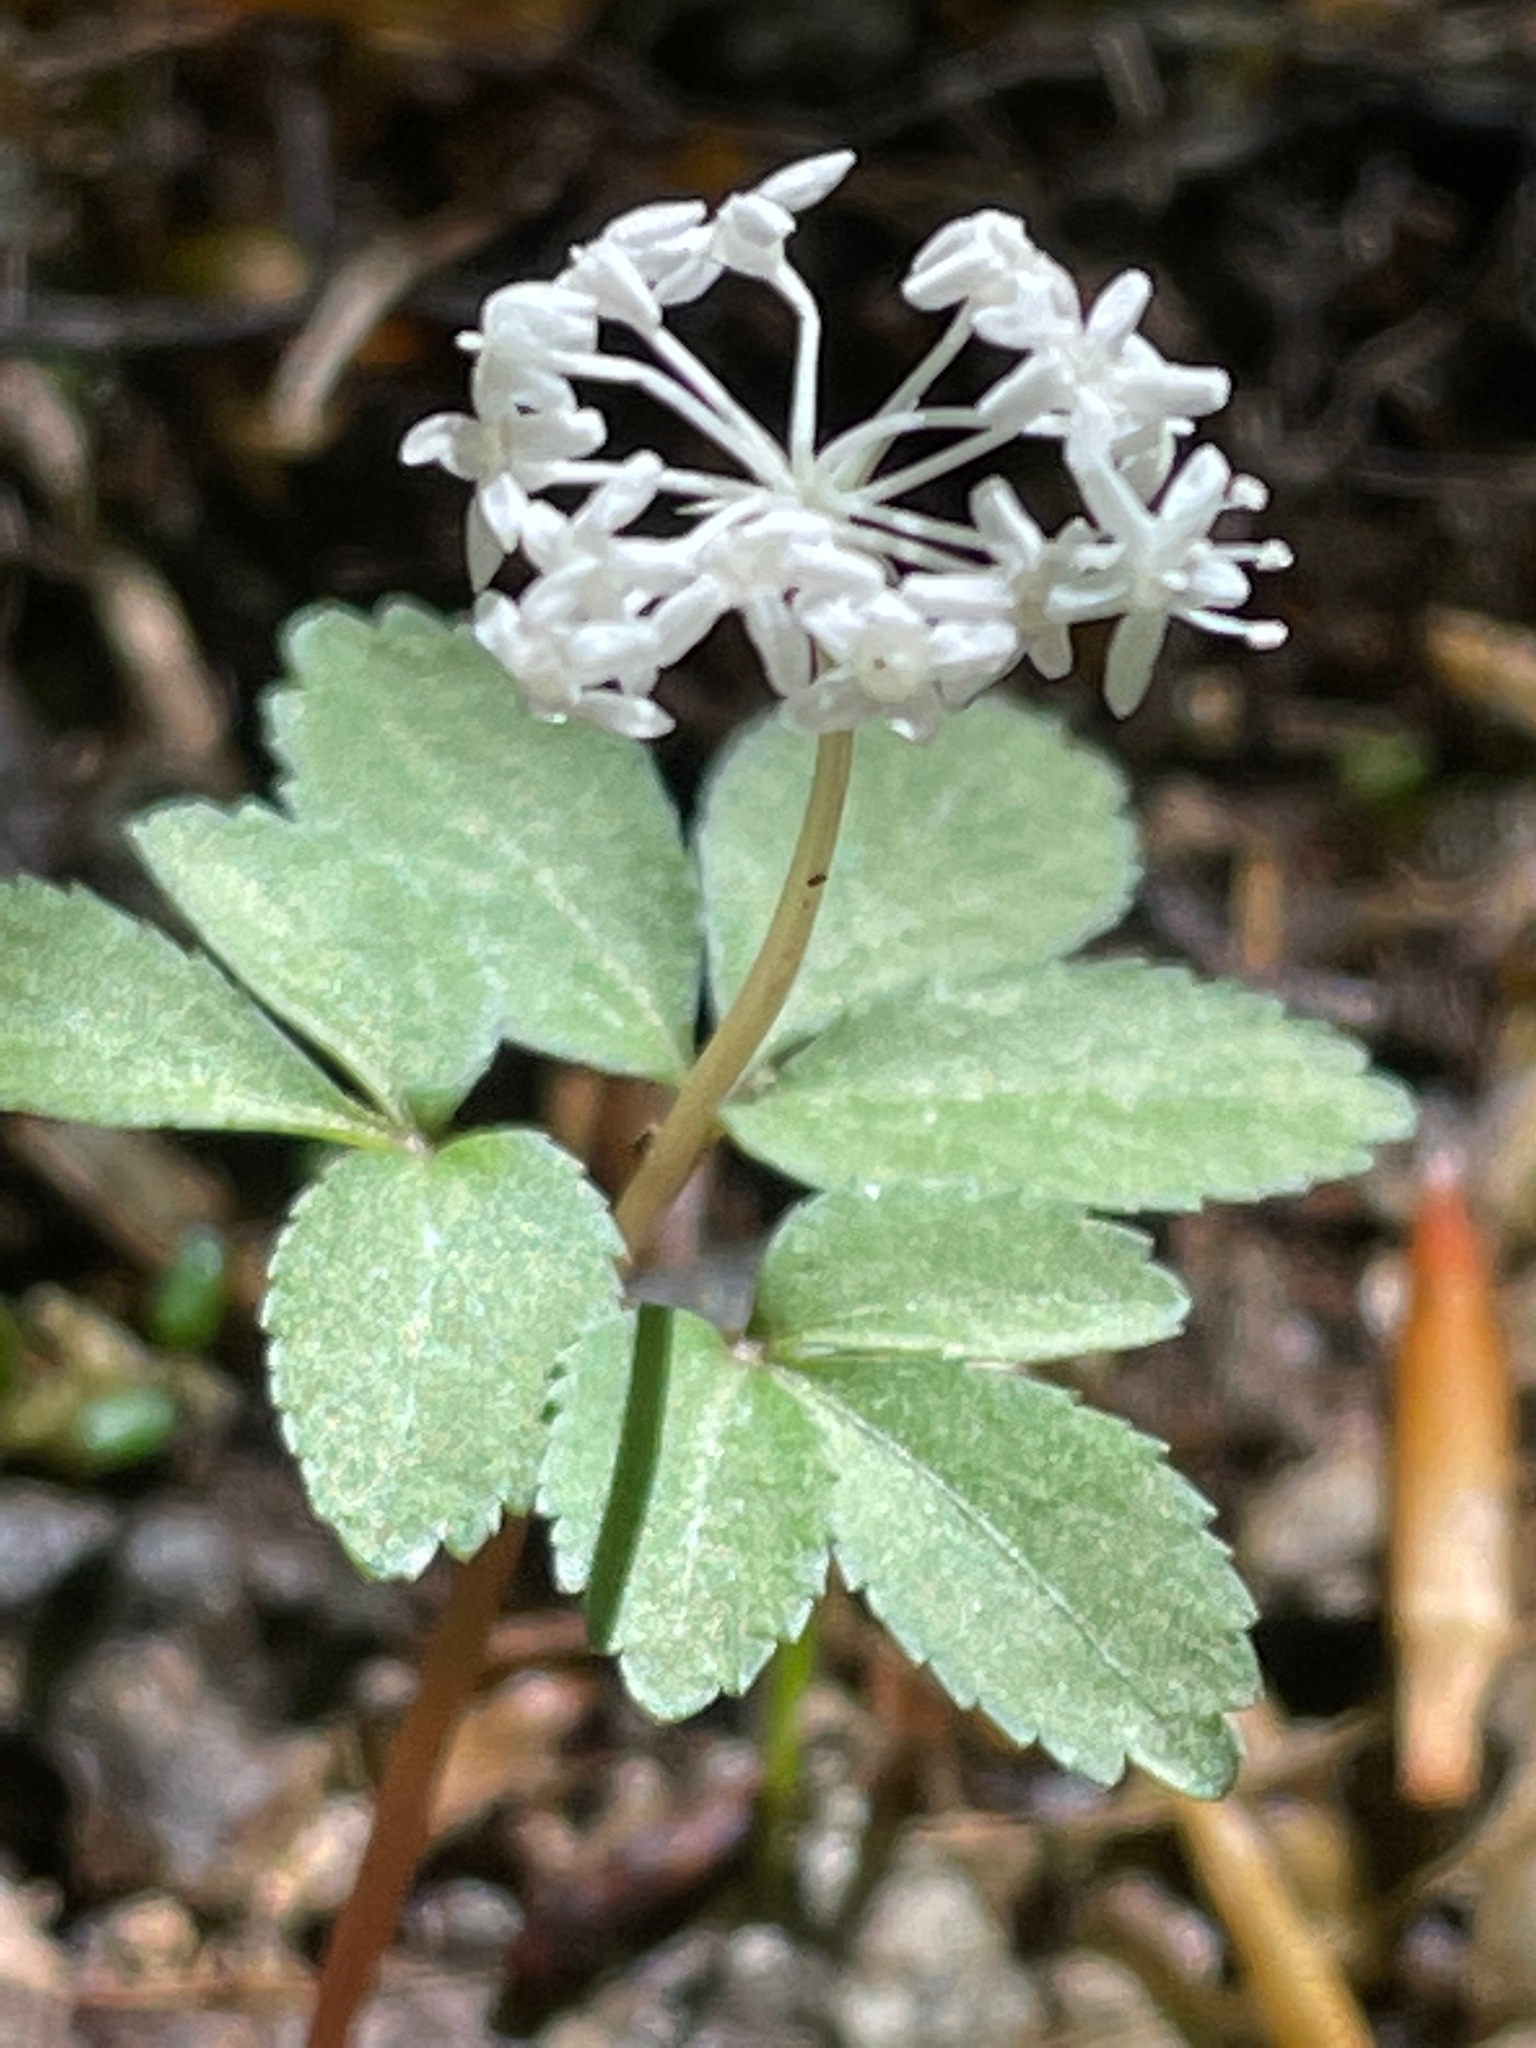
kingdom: Plantae
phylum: Tracheophyta
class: Magnoliopsida
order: Apiales
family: Araliaceae
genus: Panax
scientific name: Panax trifolius
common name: Dwarf ginseng
